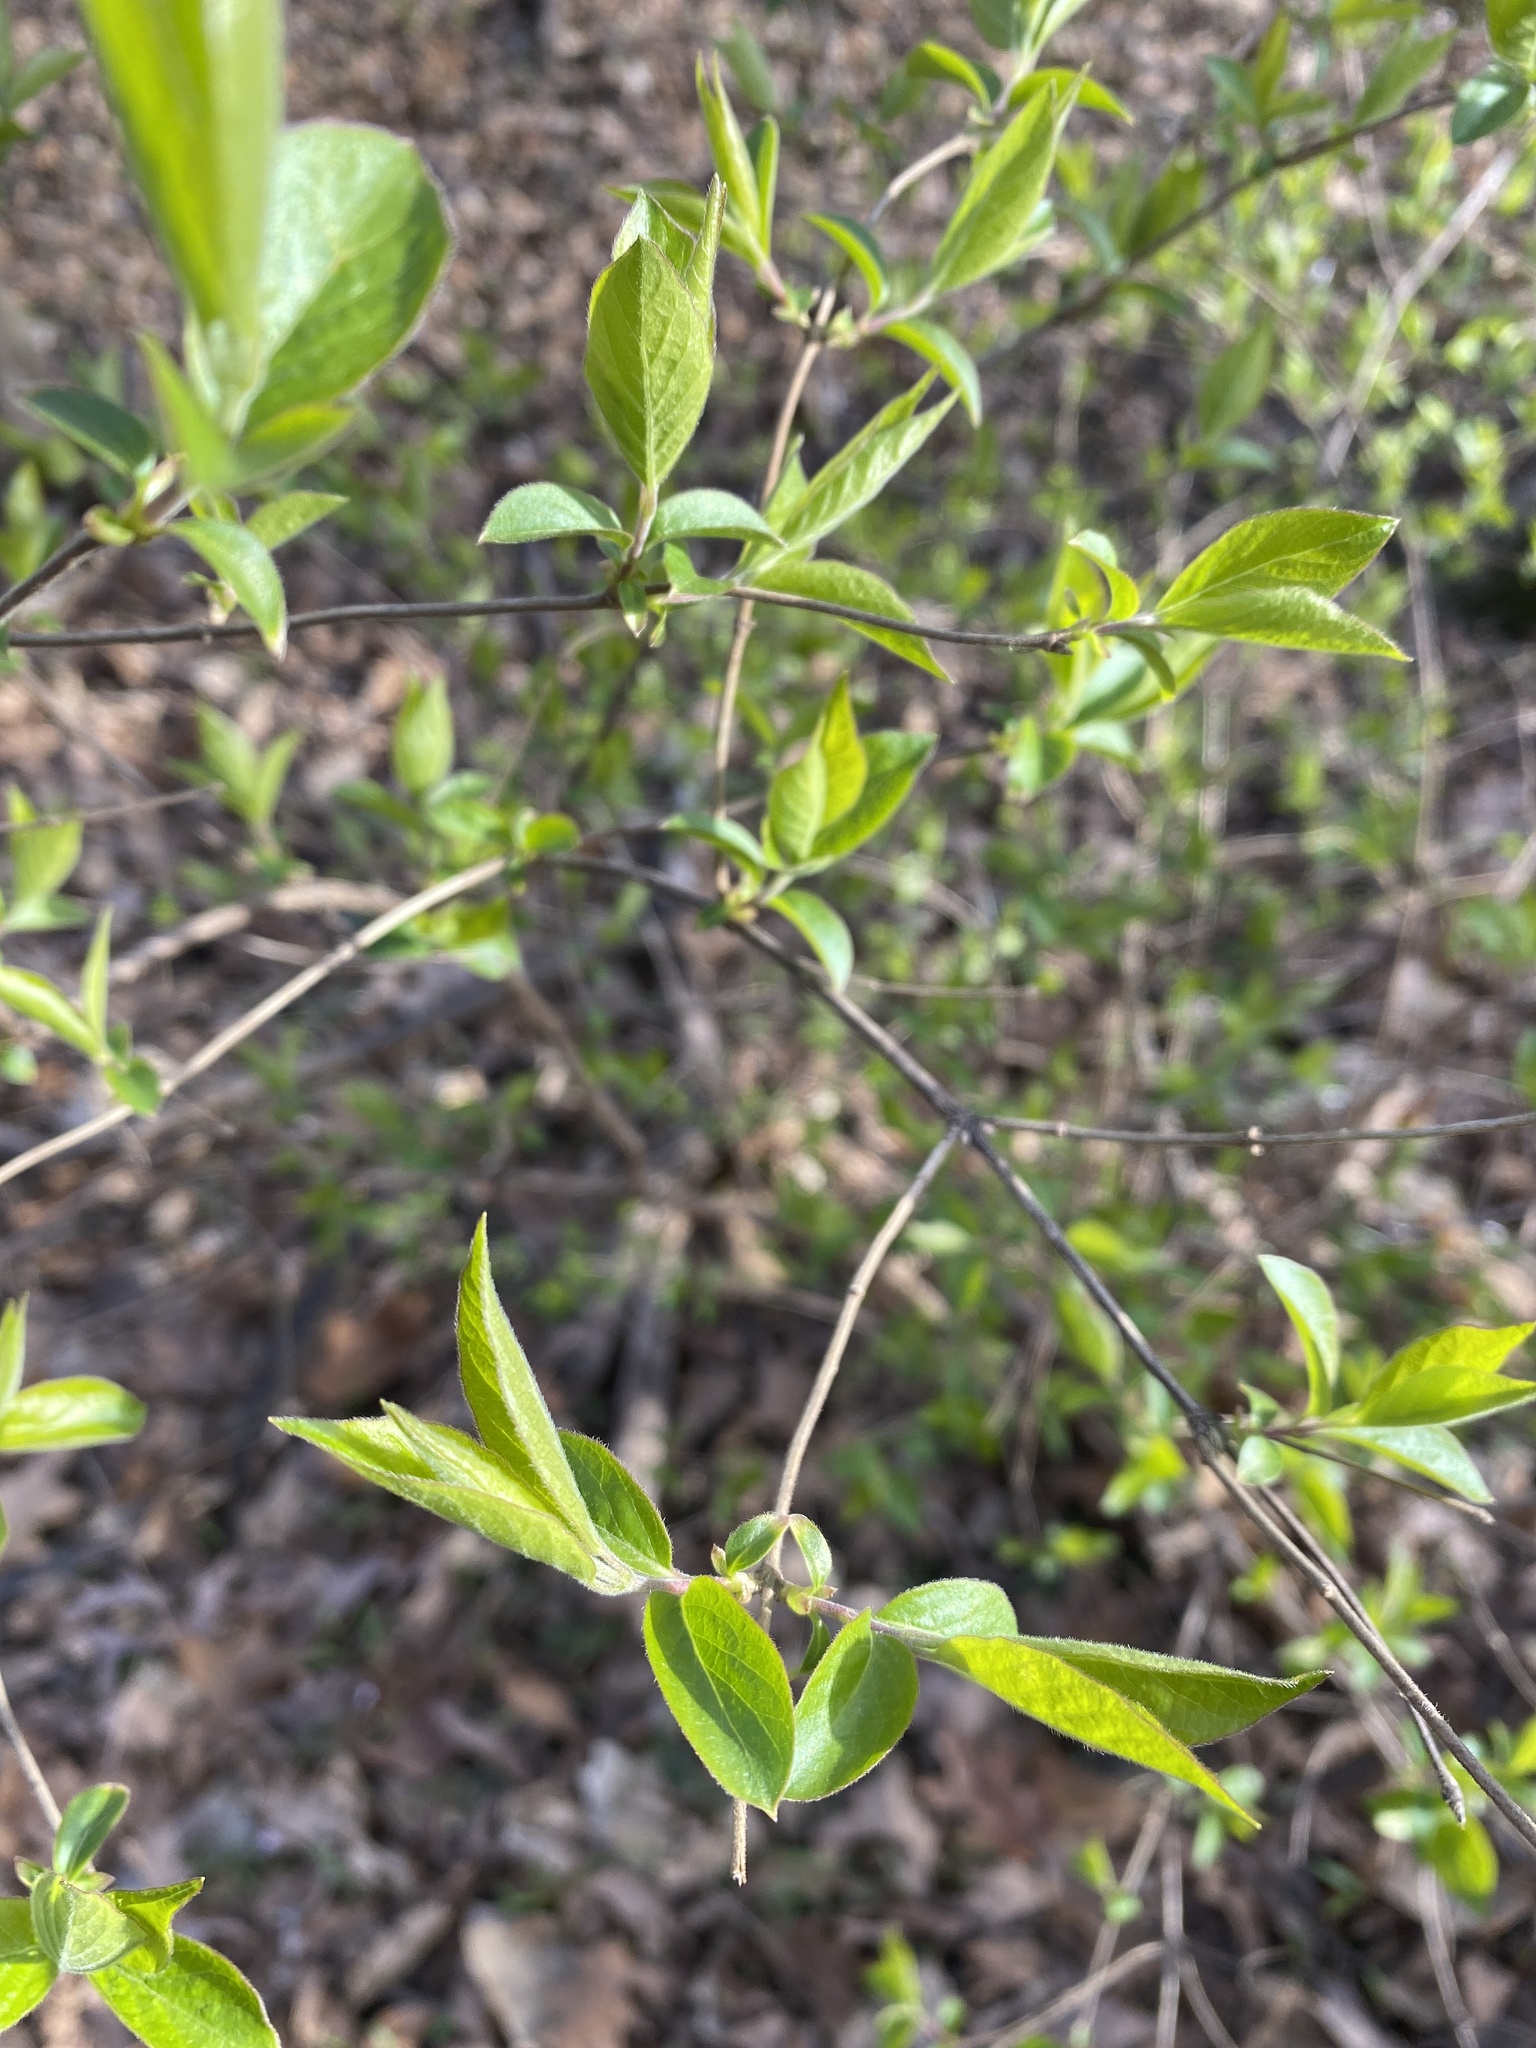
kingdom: Plantae
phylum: Tracheophyta
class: Magnoliopsida
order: Dipsacales
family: Caprifoliaceae
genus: Lonicera
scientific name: Lonicera maackii
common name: Amur honeysuckle
